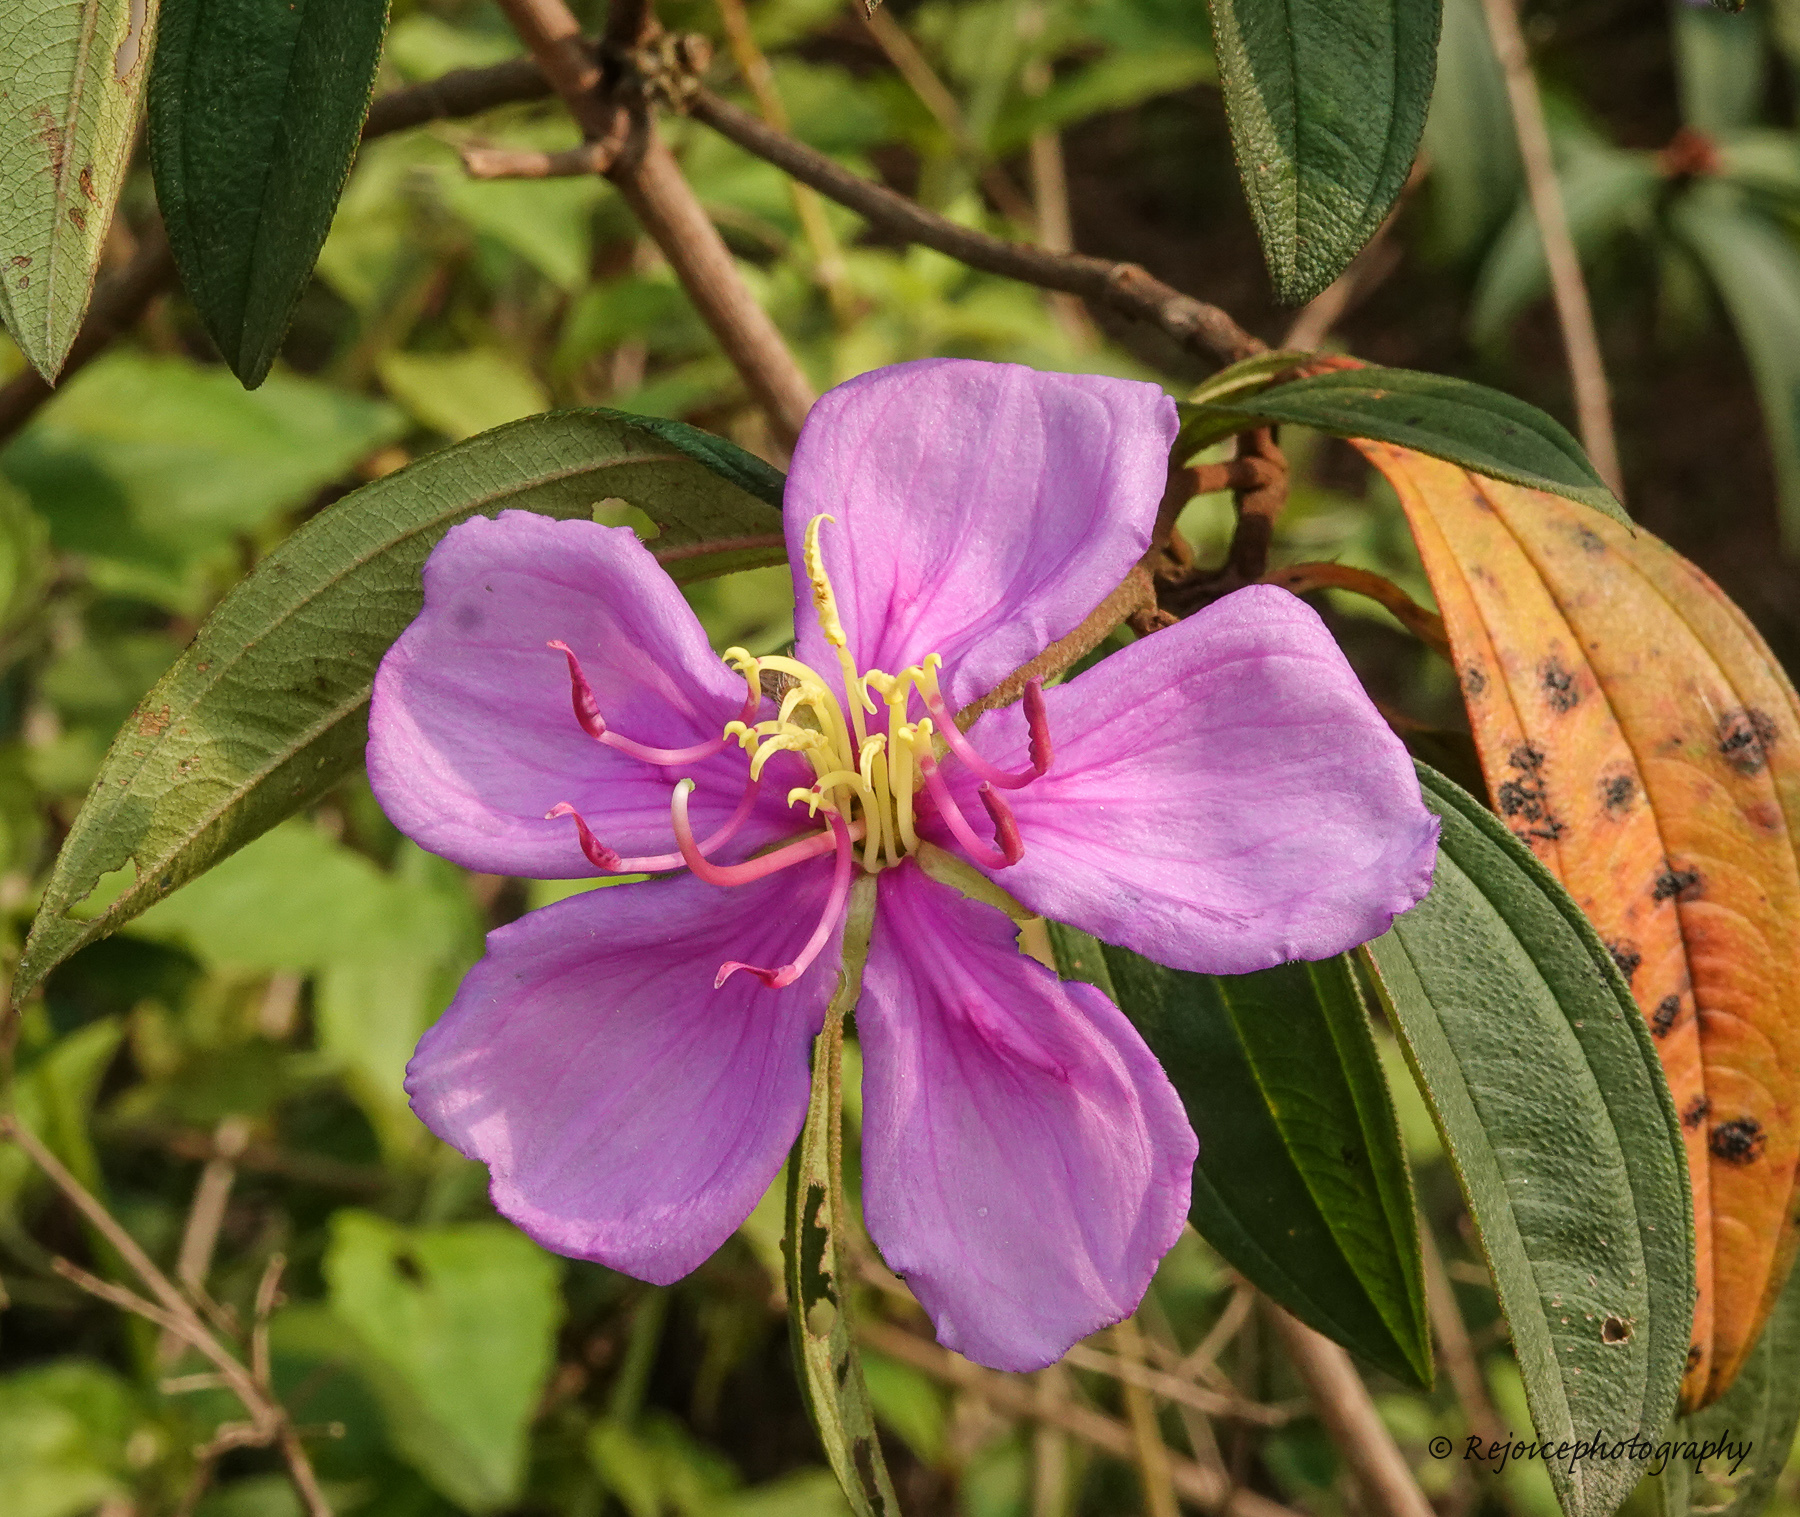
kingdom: Plantae
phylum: Tracheophyta
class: Magnoliopsida
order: Myrtales
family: Melastomataceae
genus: Melastoma
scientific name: Melastoma malabathricum
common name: Indian-rhododendron
